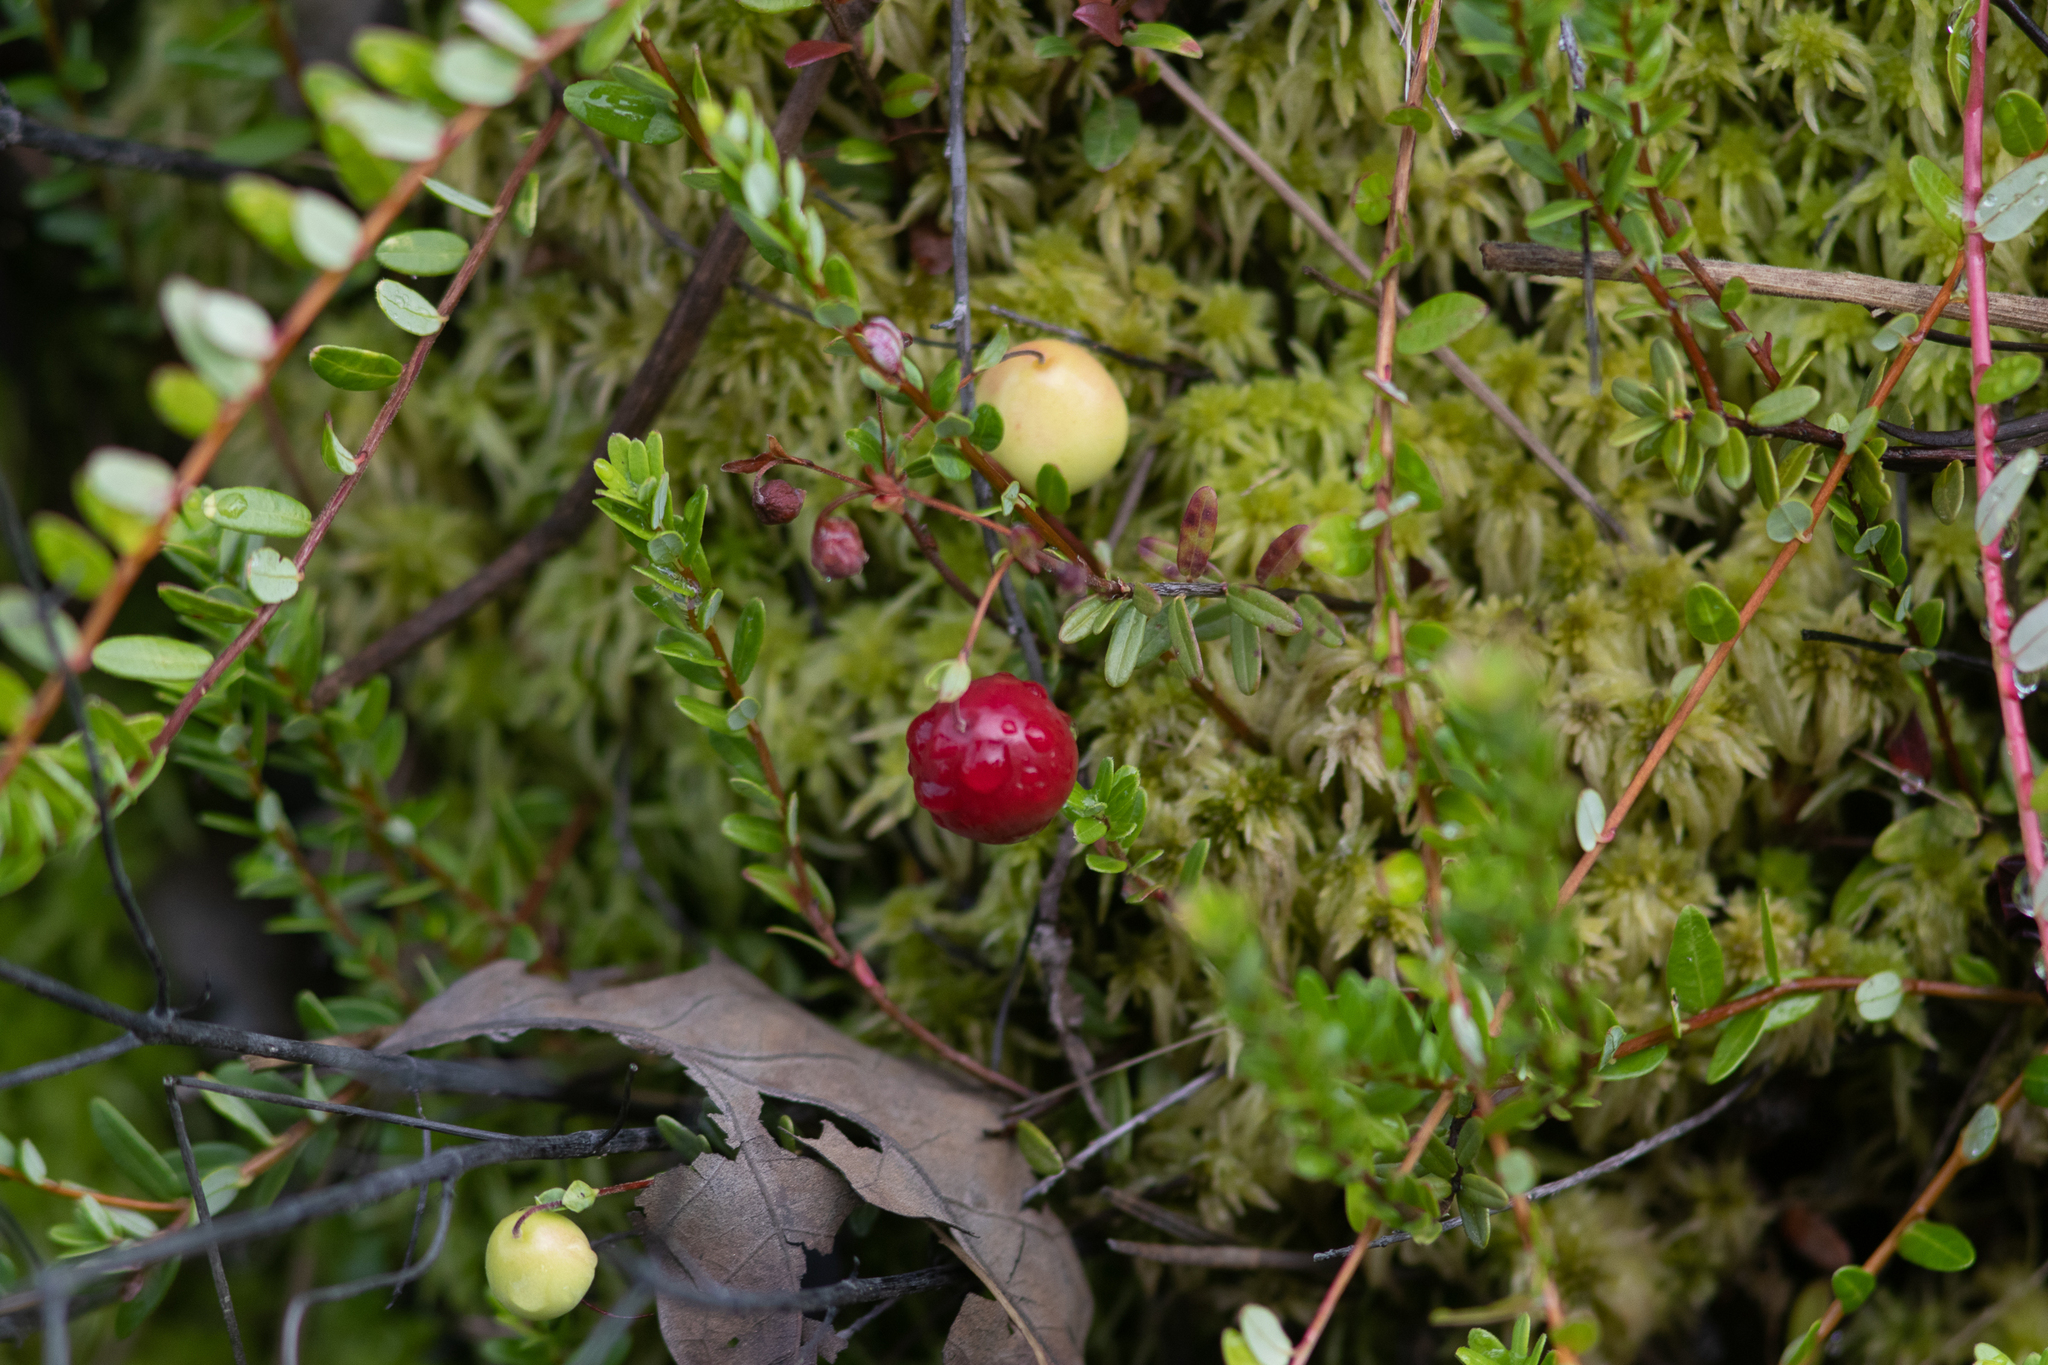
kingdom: Plantae
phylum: Tracheophyta
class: Magnoliopsida
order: Ericales
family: Ericaceae
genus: Vaccinium
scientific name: Vaccinium macrocarpon
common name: American cranberry
